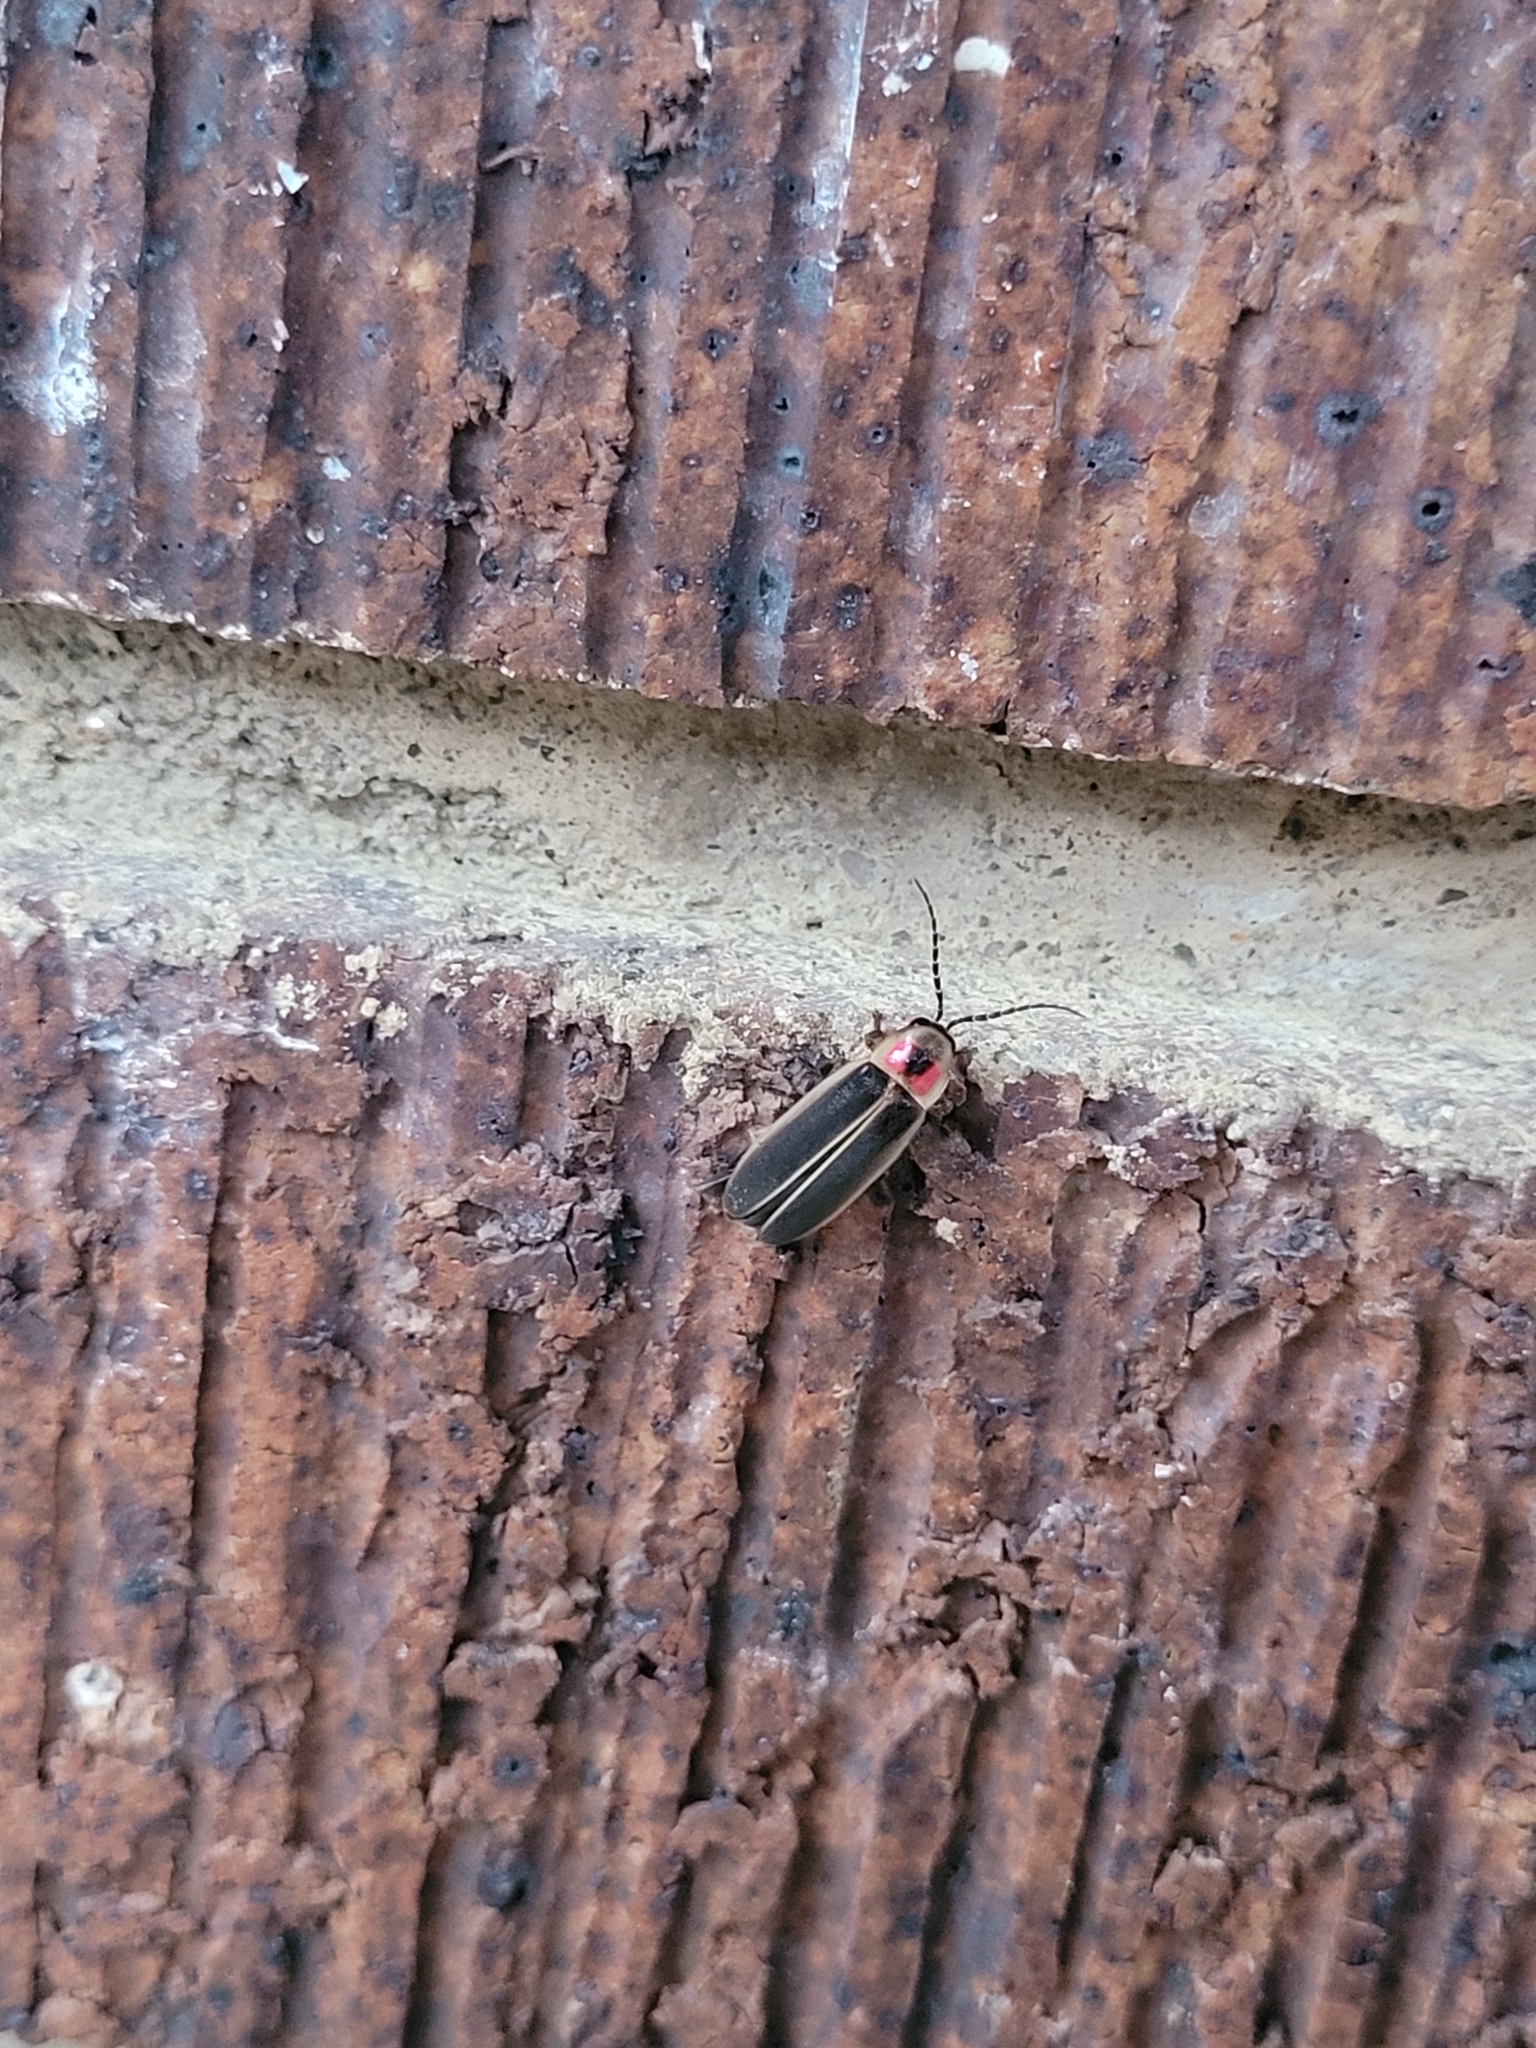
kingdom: Animalia
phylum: Arthropoda
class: Insecta
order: Coleoptera
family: Lampyridae
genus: Photinus
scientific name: Photinus pyralis
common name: Big dipper firefly
